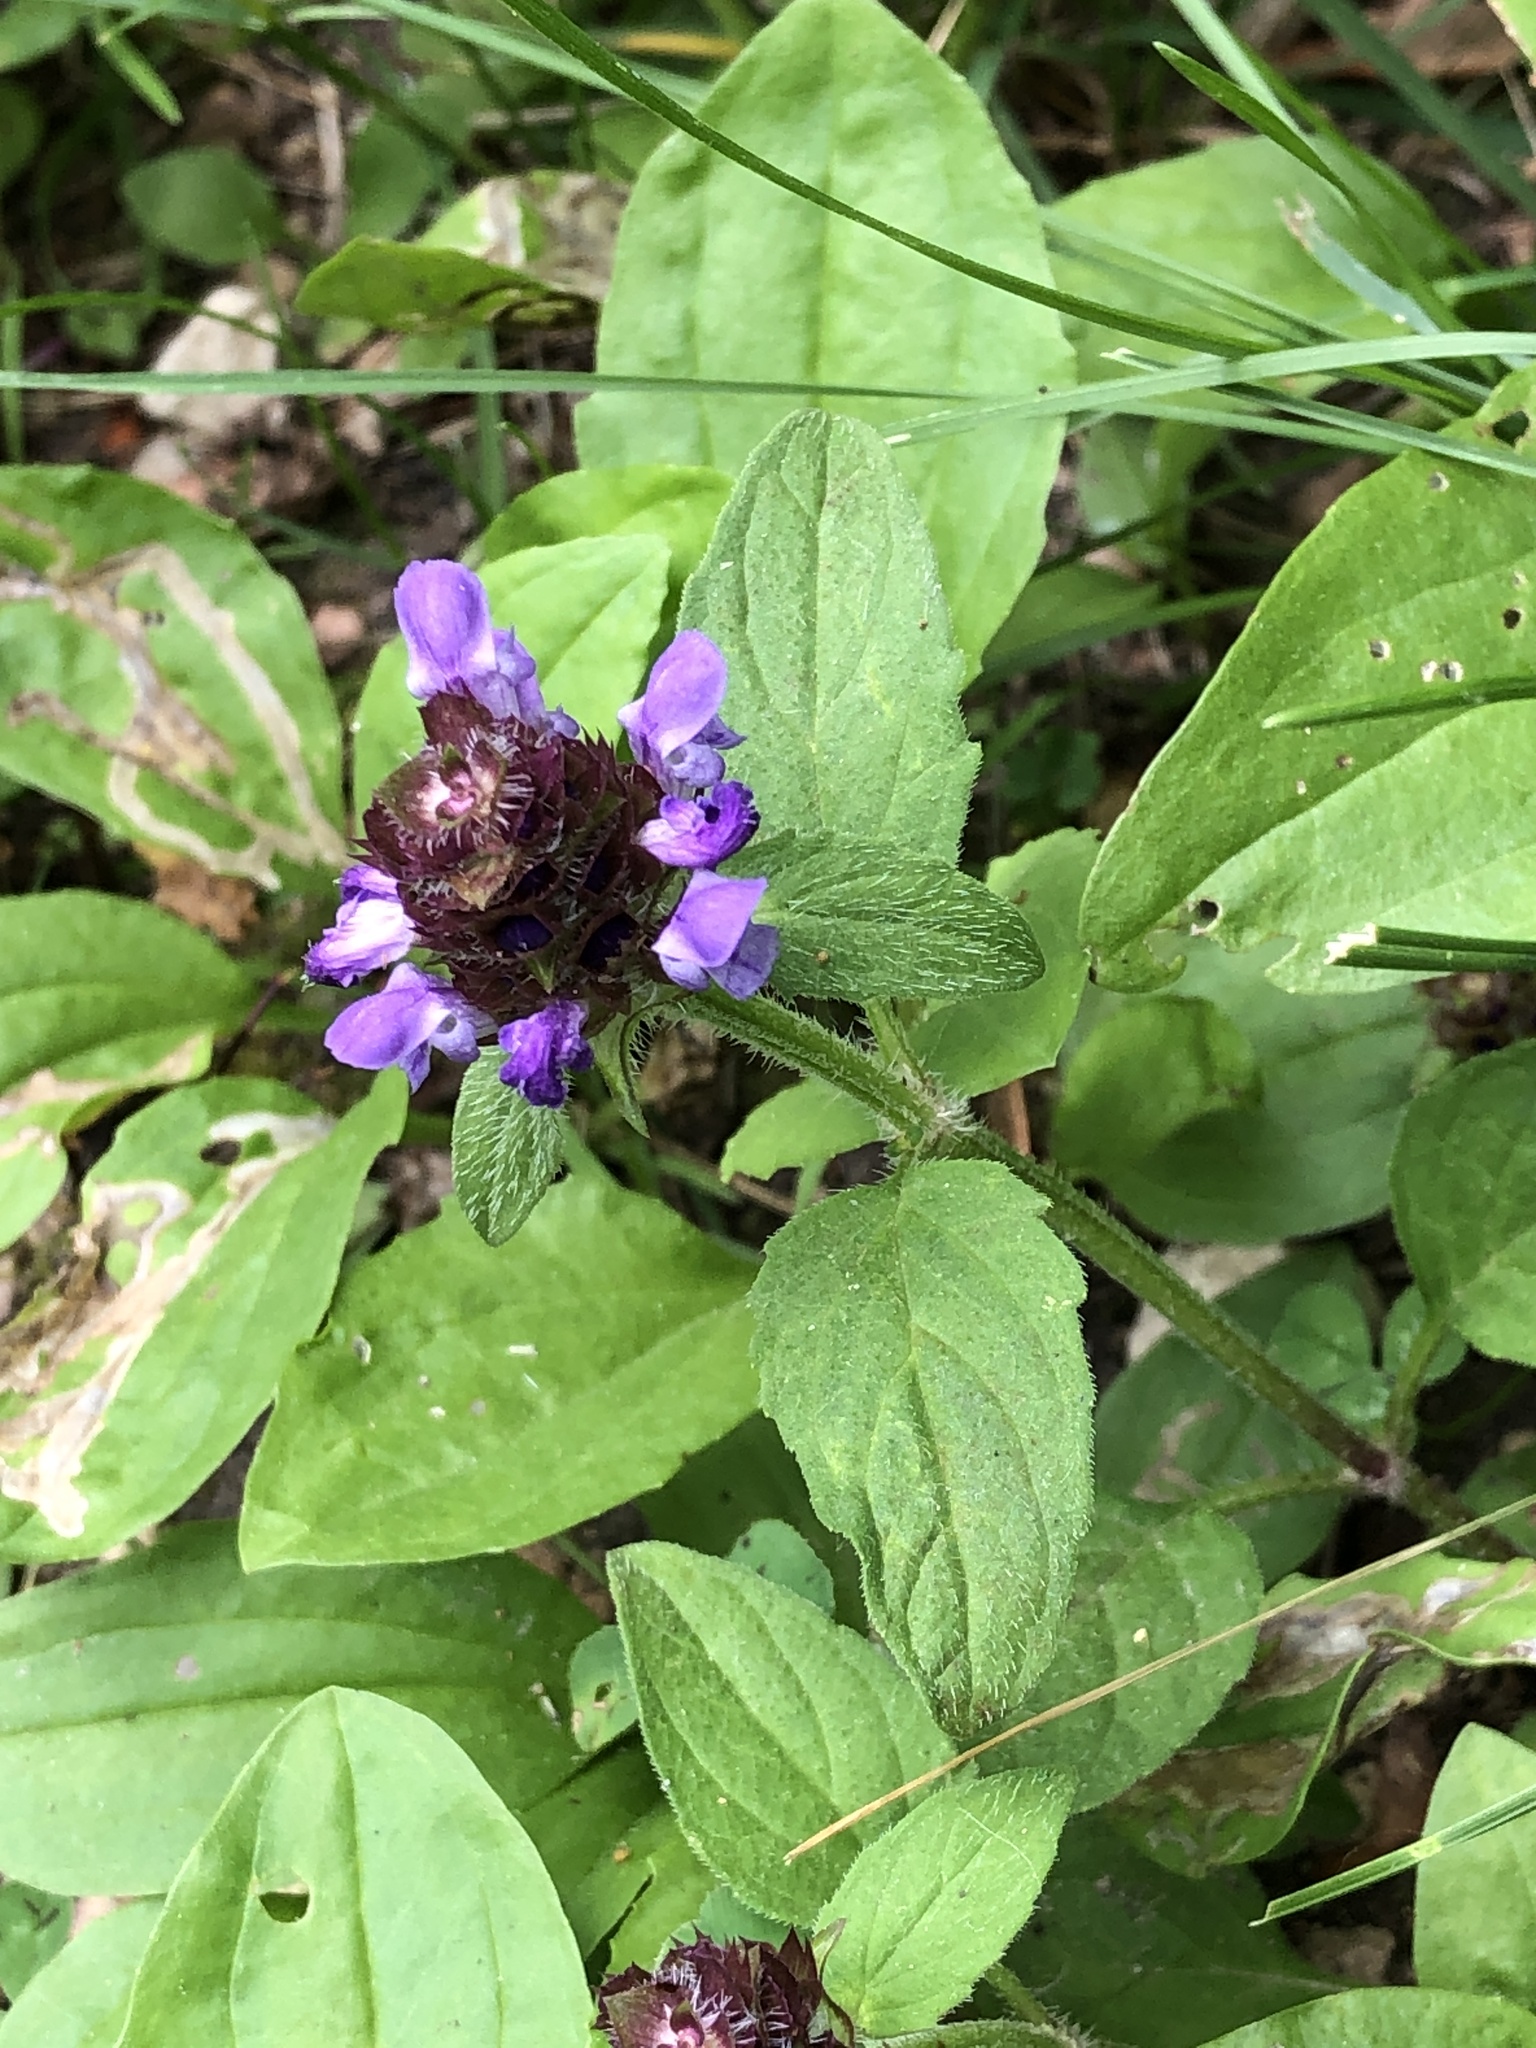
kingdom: Plantae
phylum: Tracheophyta
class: Magnoliopsida
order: Lamiales
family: Lamiaceae
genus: Prunella
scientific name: Prunella vulgaris
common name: Heal-all
